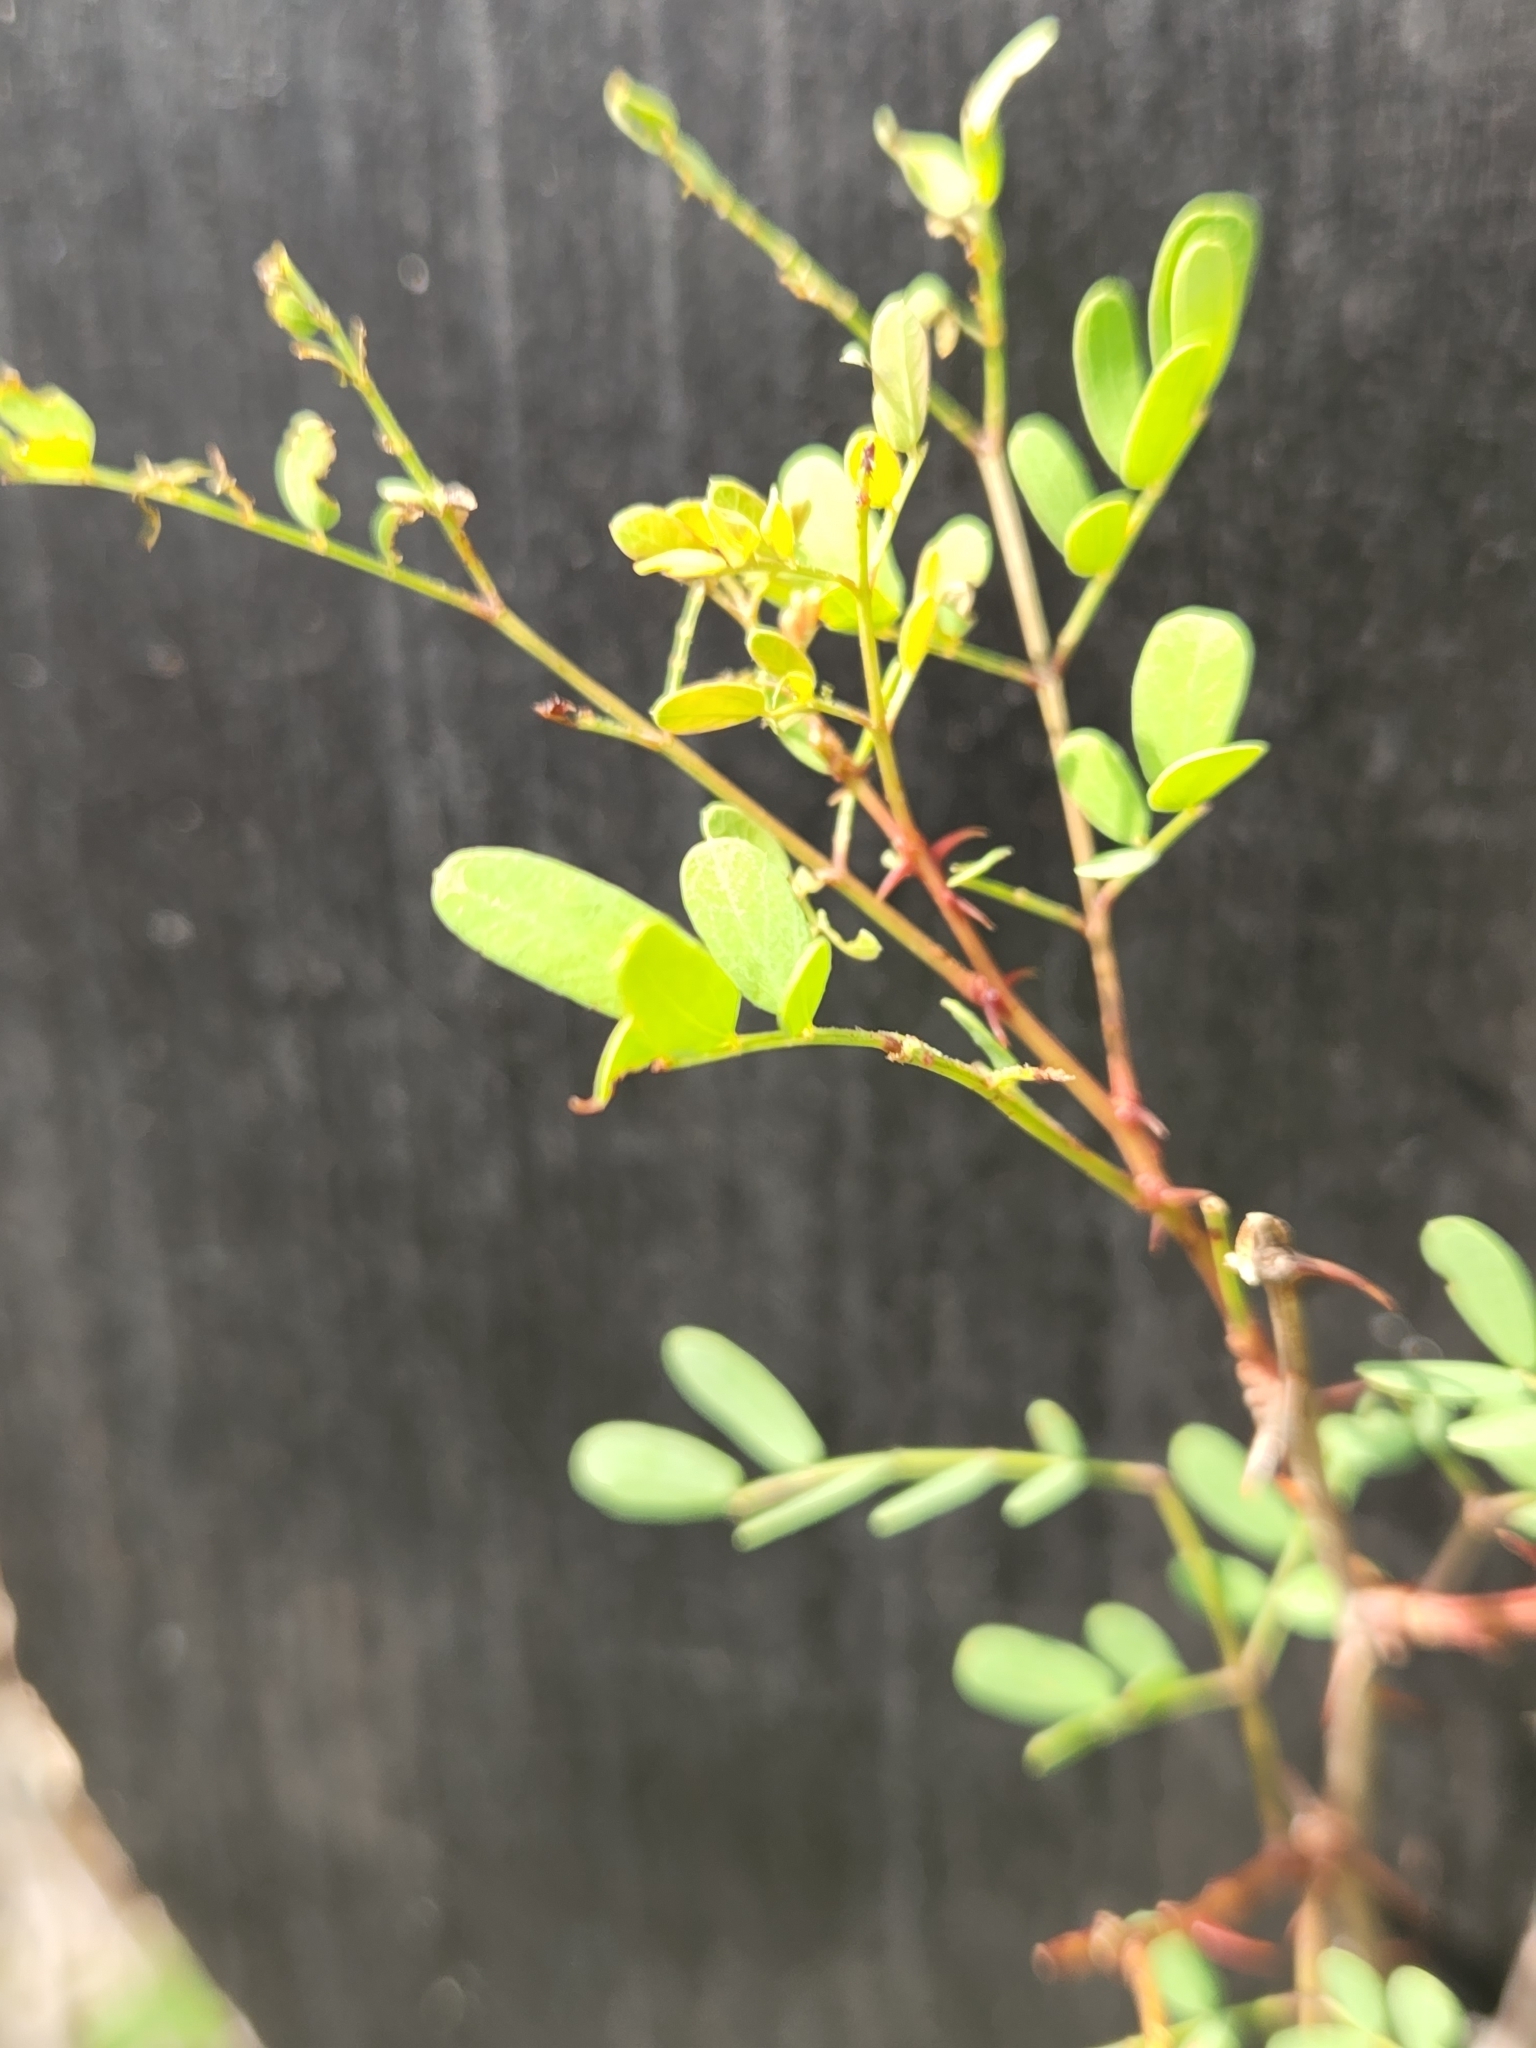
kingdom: Plantae
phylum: Tracheophyta
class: Magnoliopsida
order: Fabales
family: Fabaceae
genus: Senegalia
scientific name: Senegalia roemeriana
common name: Roemer's acacia
